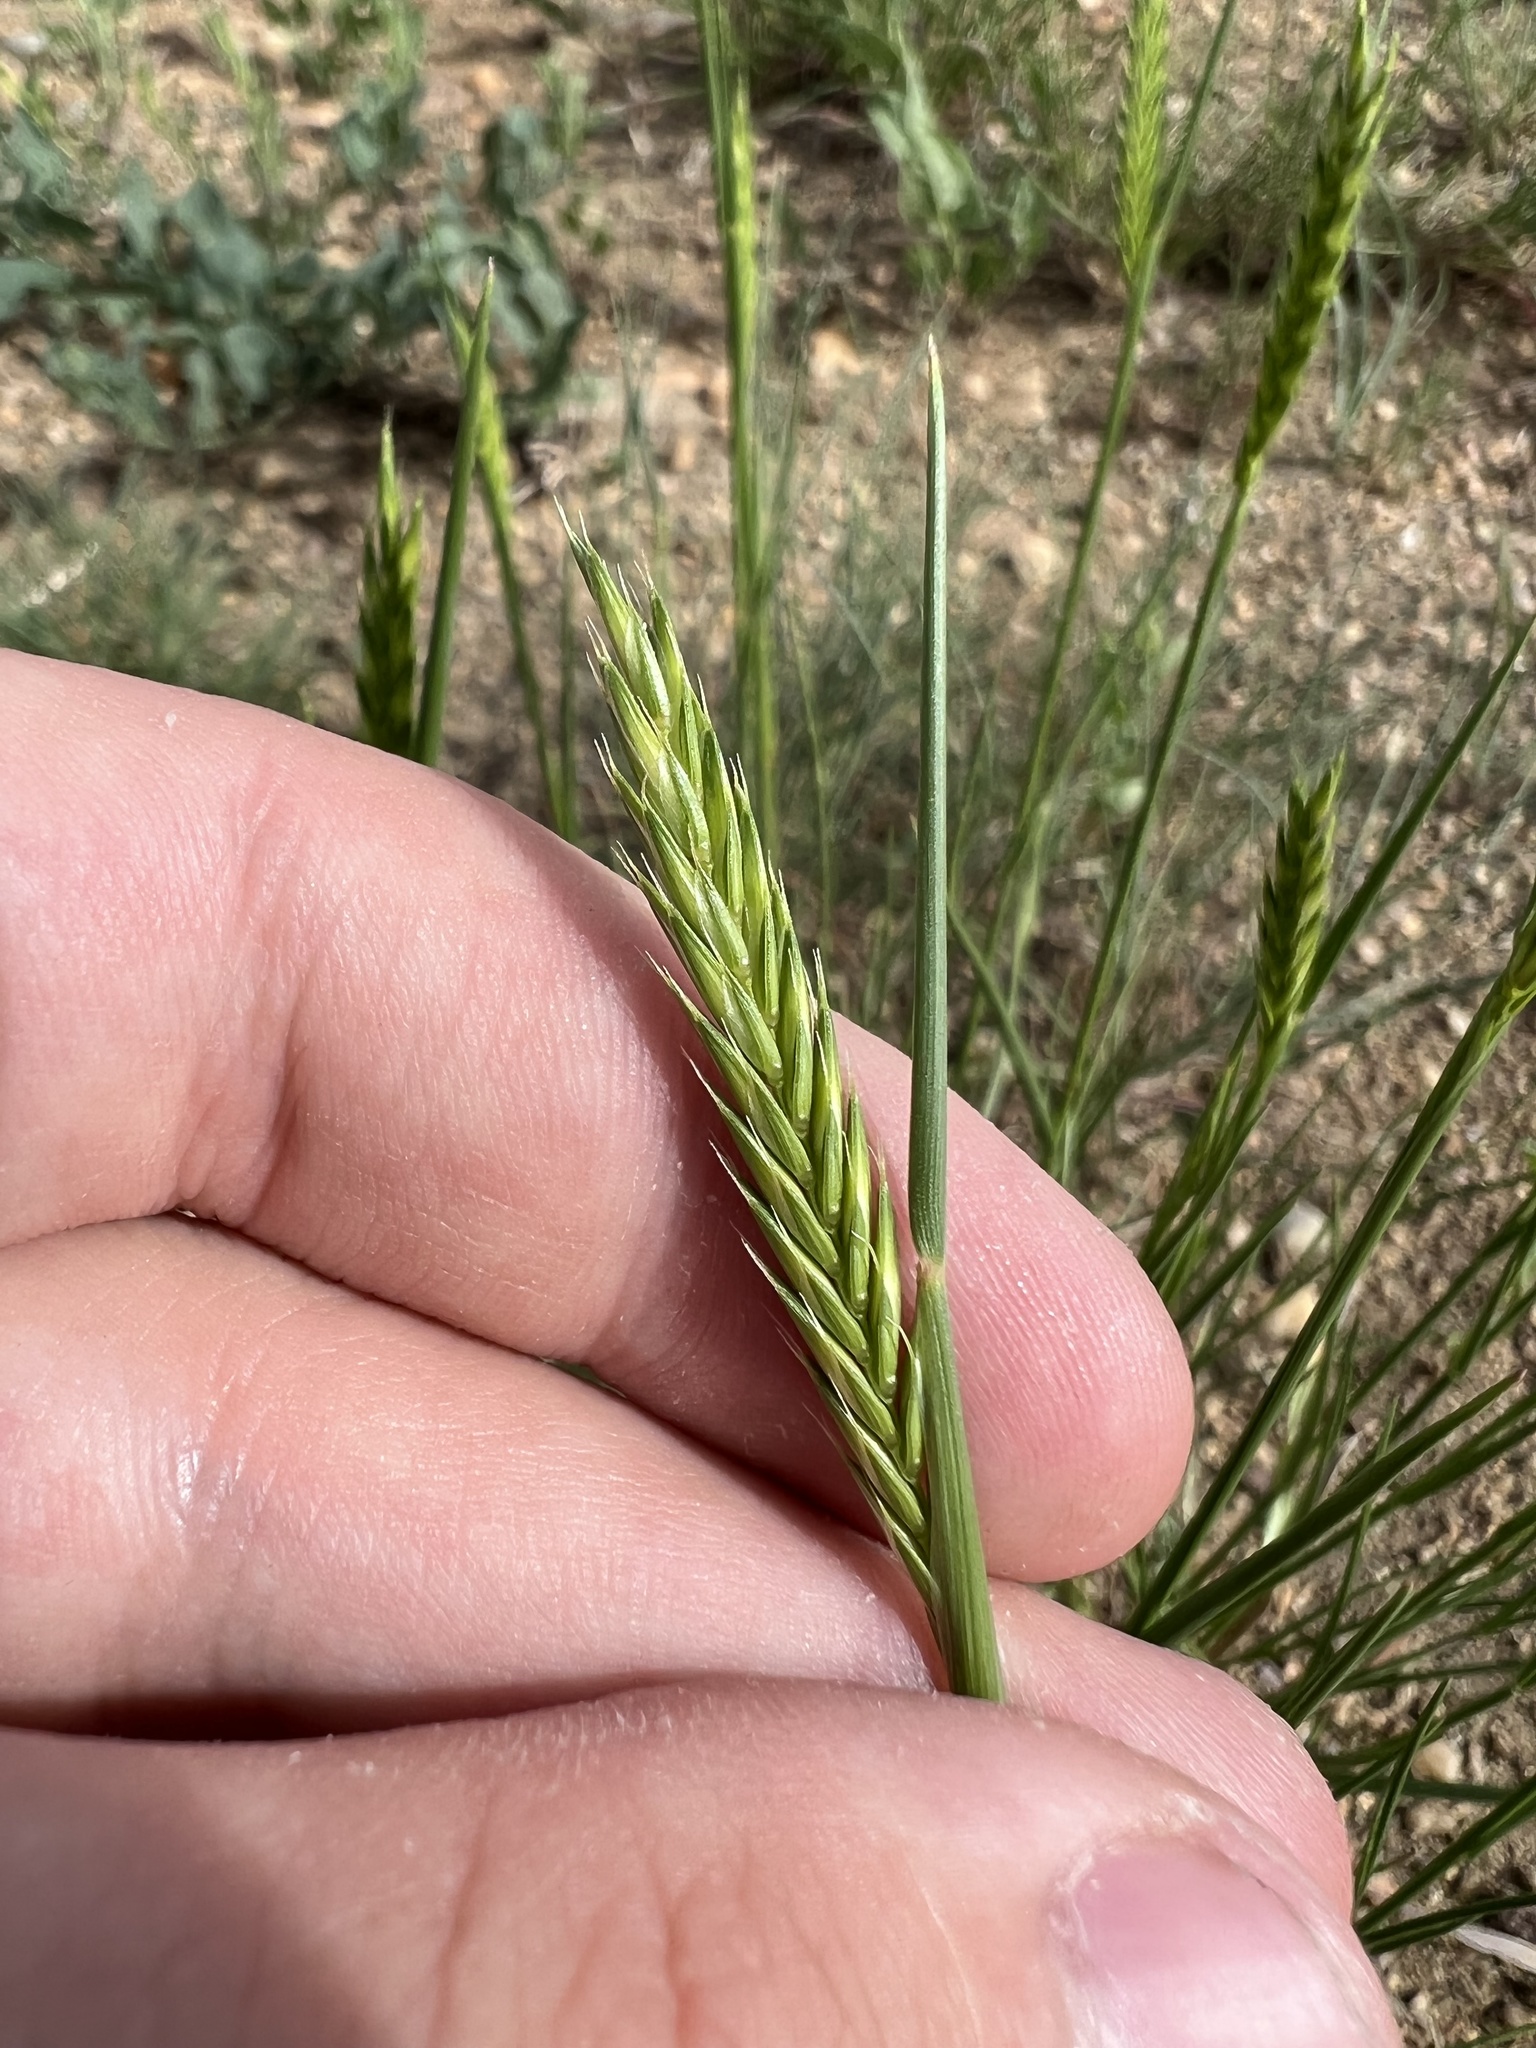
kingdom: Plantae
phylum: Tracheophyta
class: Liliopsida
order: Poales
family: Poaceae
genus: Agropyron
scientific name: Agropyron cristatum
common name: Crested wheatgrass
